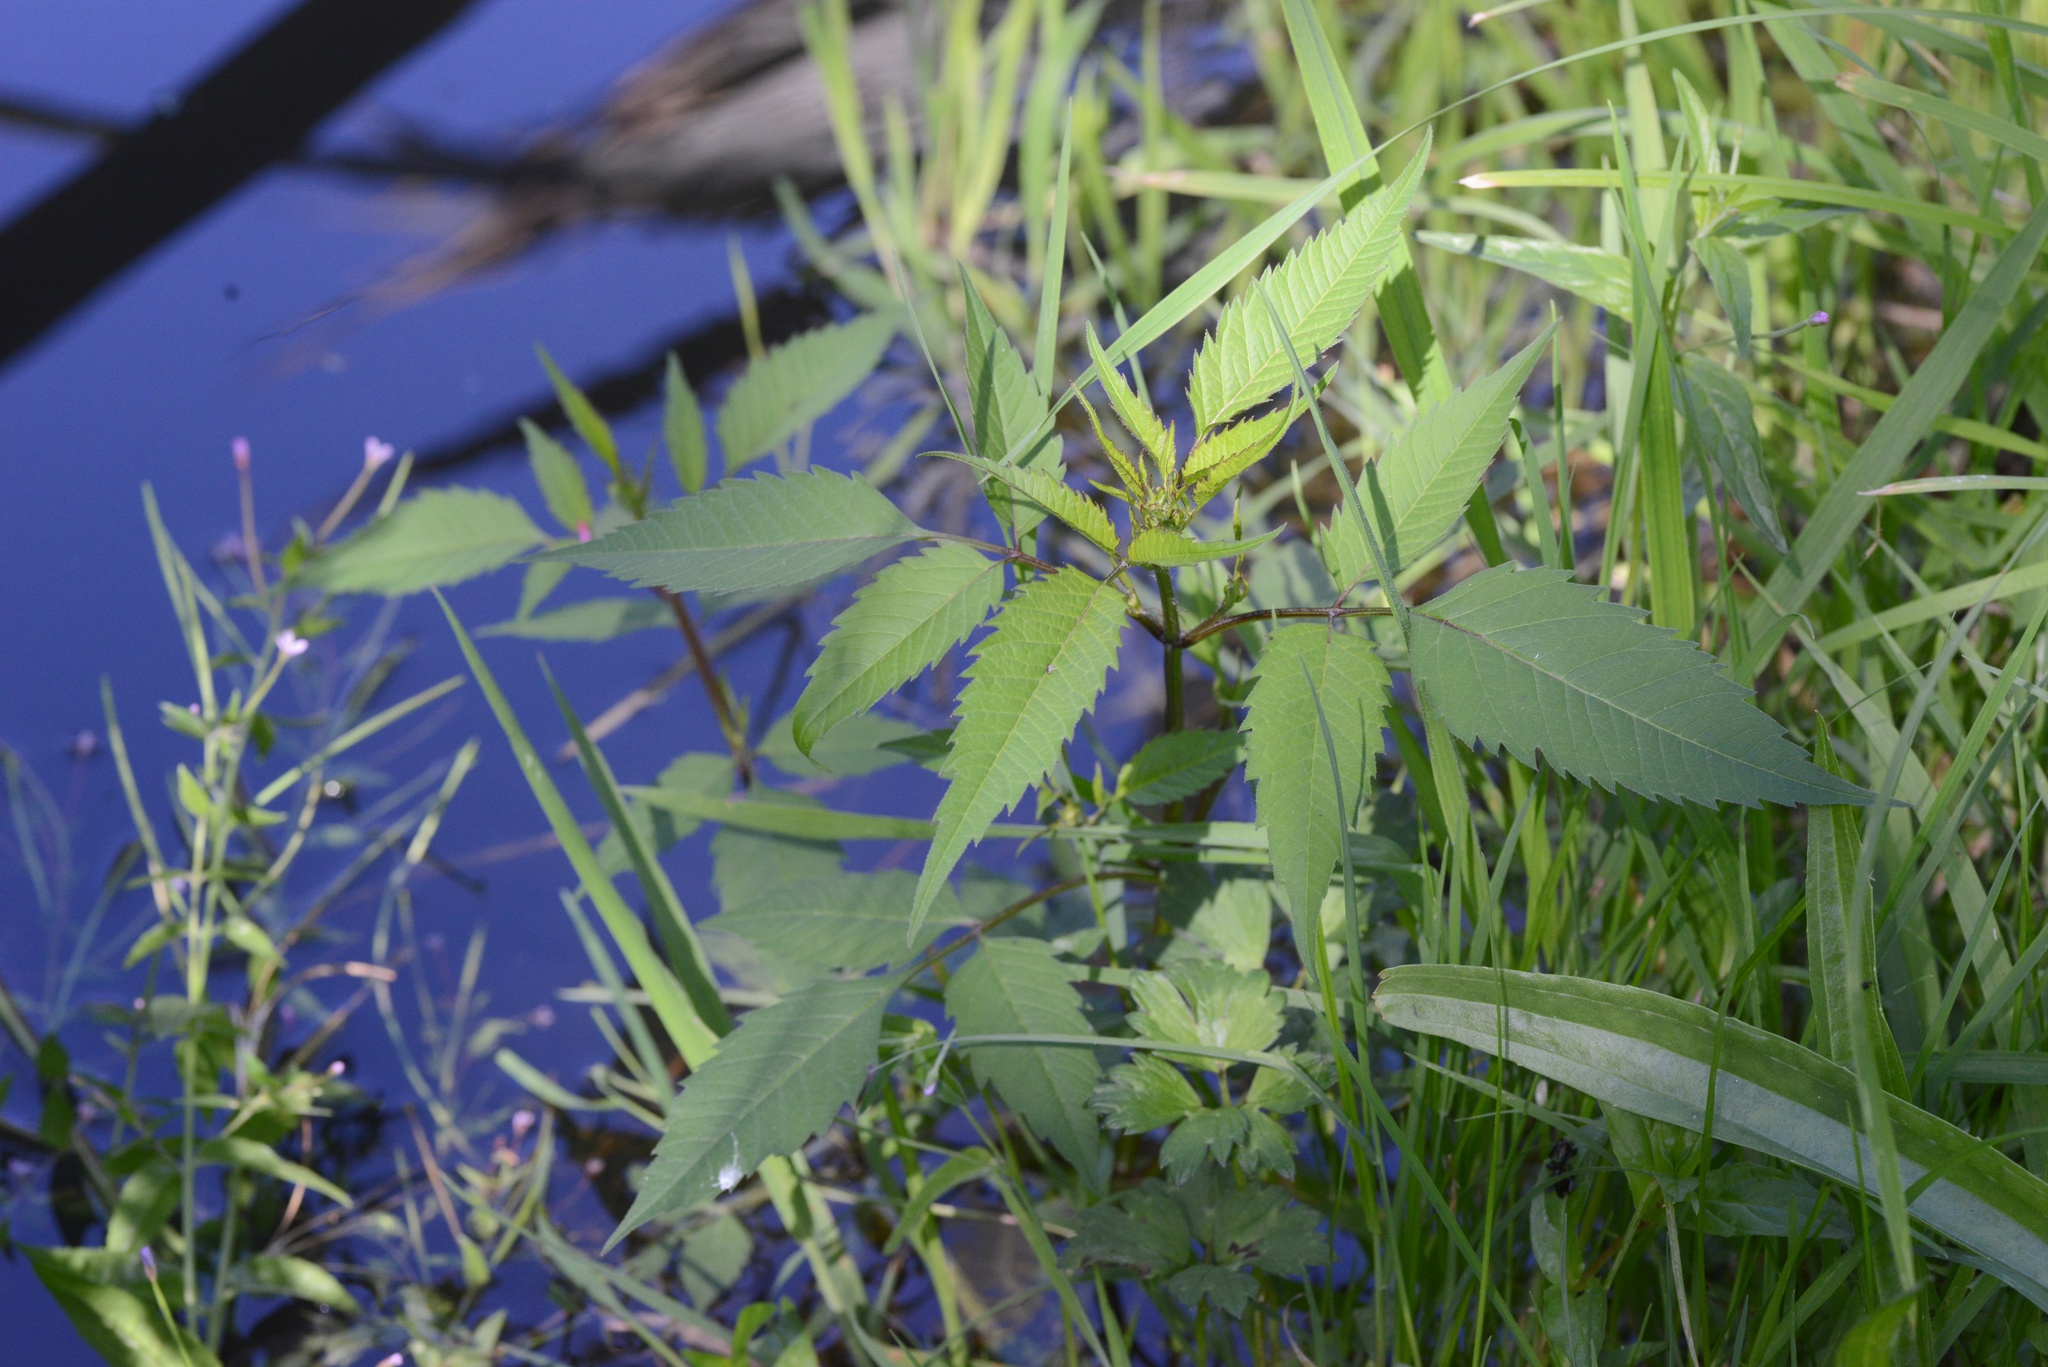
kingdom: Plantae
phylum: Tracheophyta
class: Magnoliopsida
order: Asterales
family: Asteraceae
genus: Bidens
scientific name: Bidens frondosa
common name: Beggarticks
